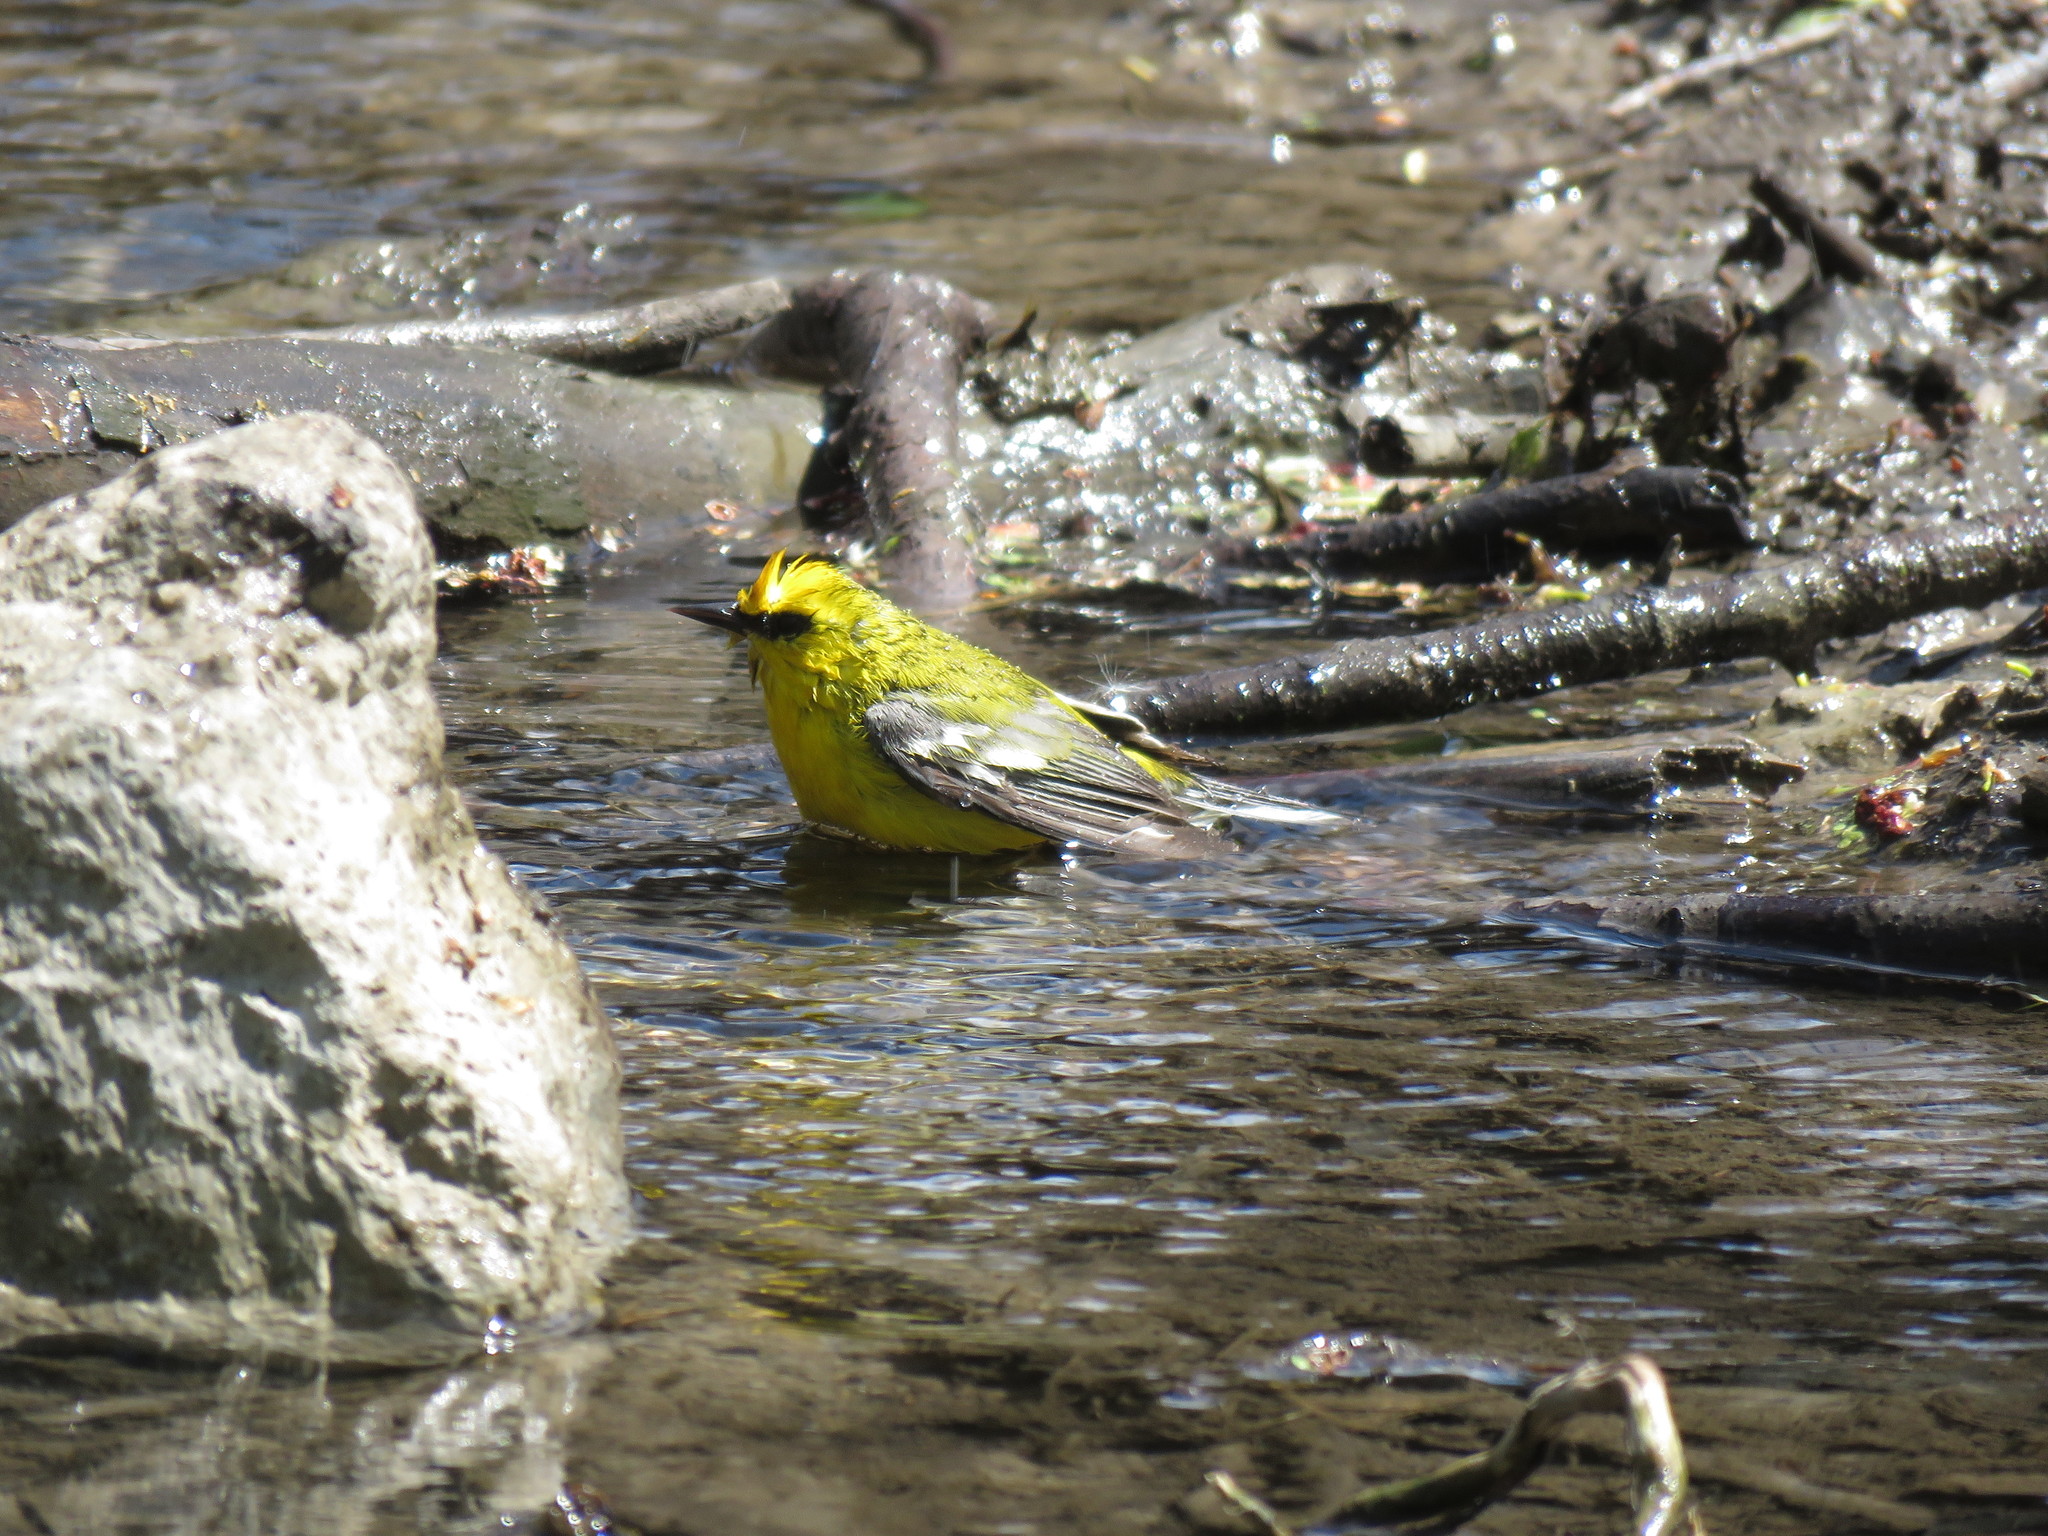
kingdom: Animalia
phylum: Chordata
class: Aves
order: Passeriformes
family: Parulidae
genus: Vermivora
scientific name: Vermivora cyanoptera
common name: Blue-winged warbler
